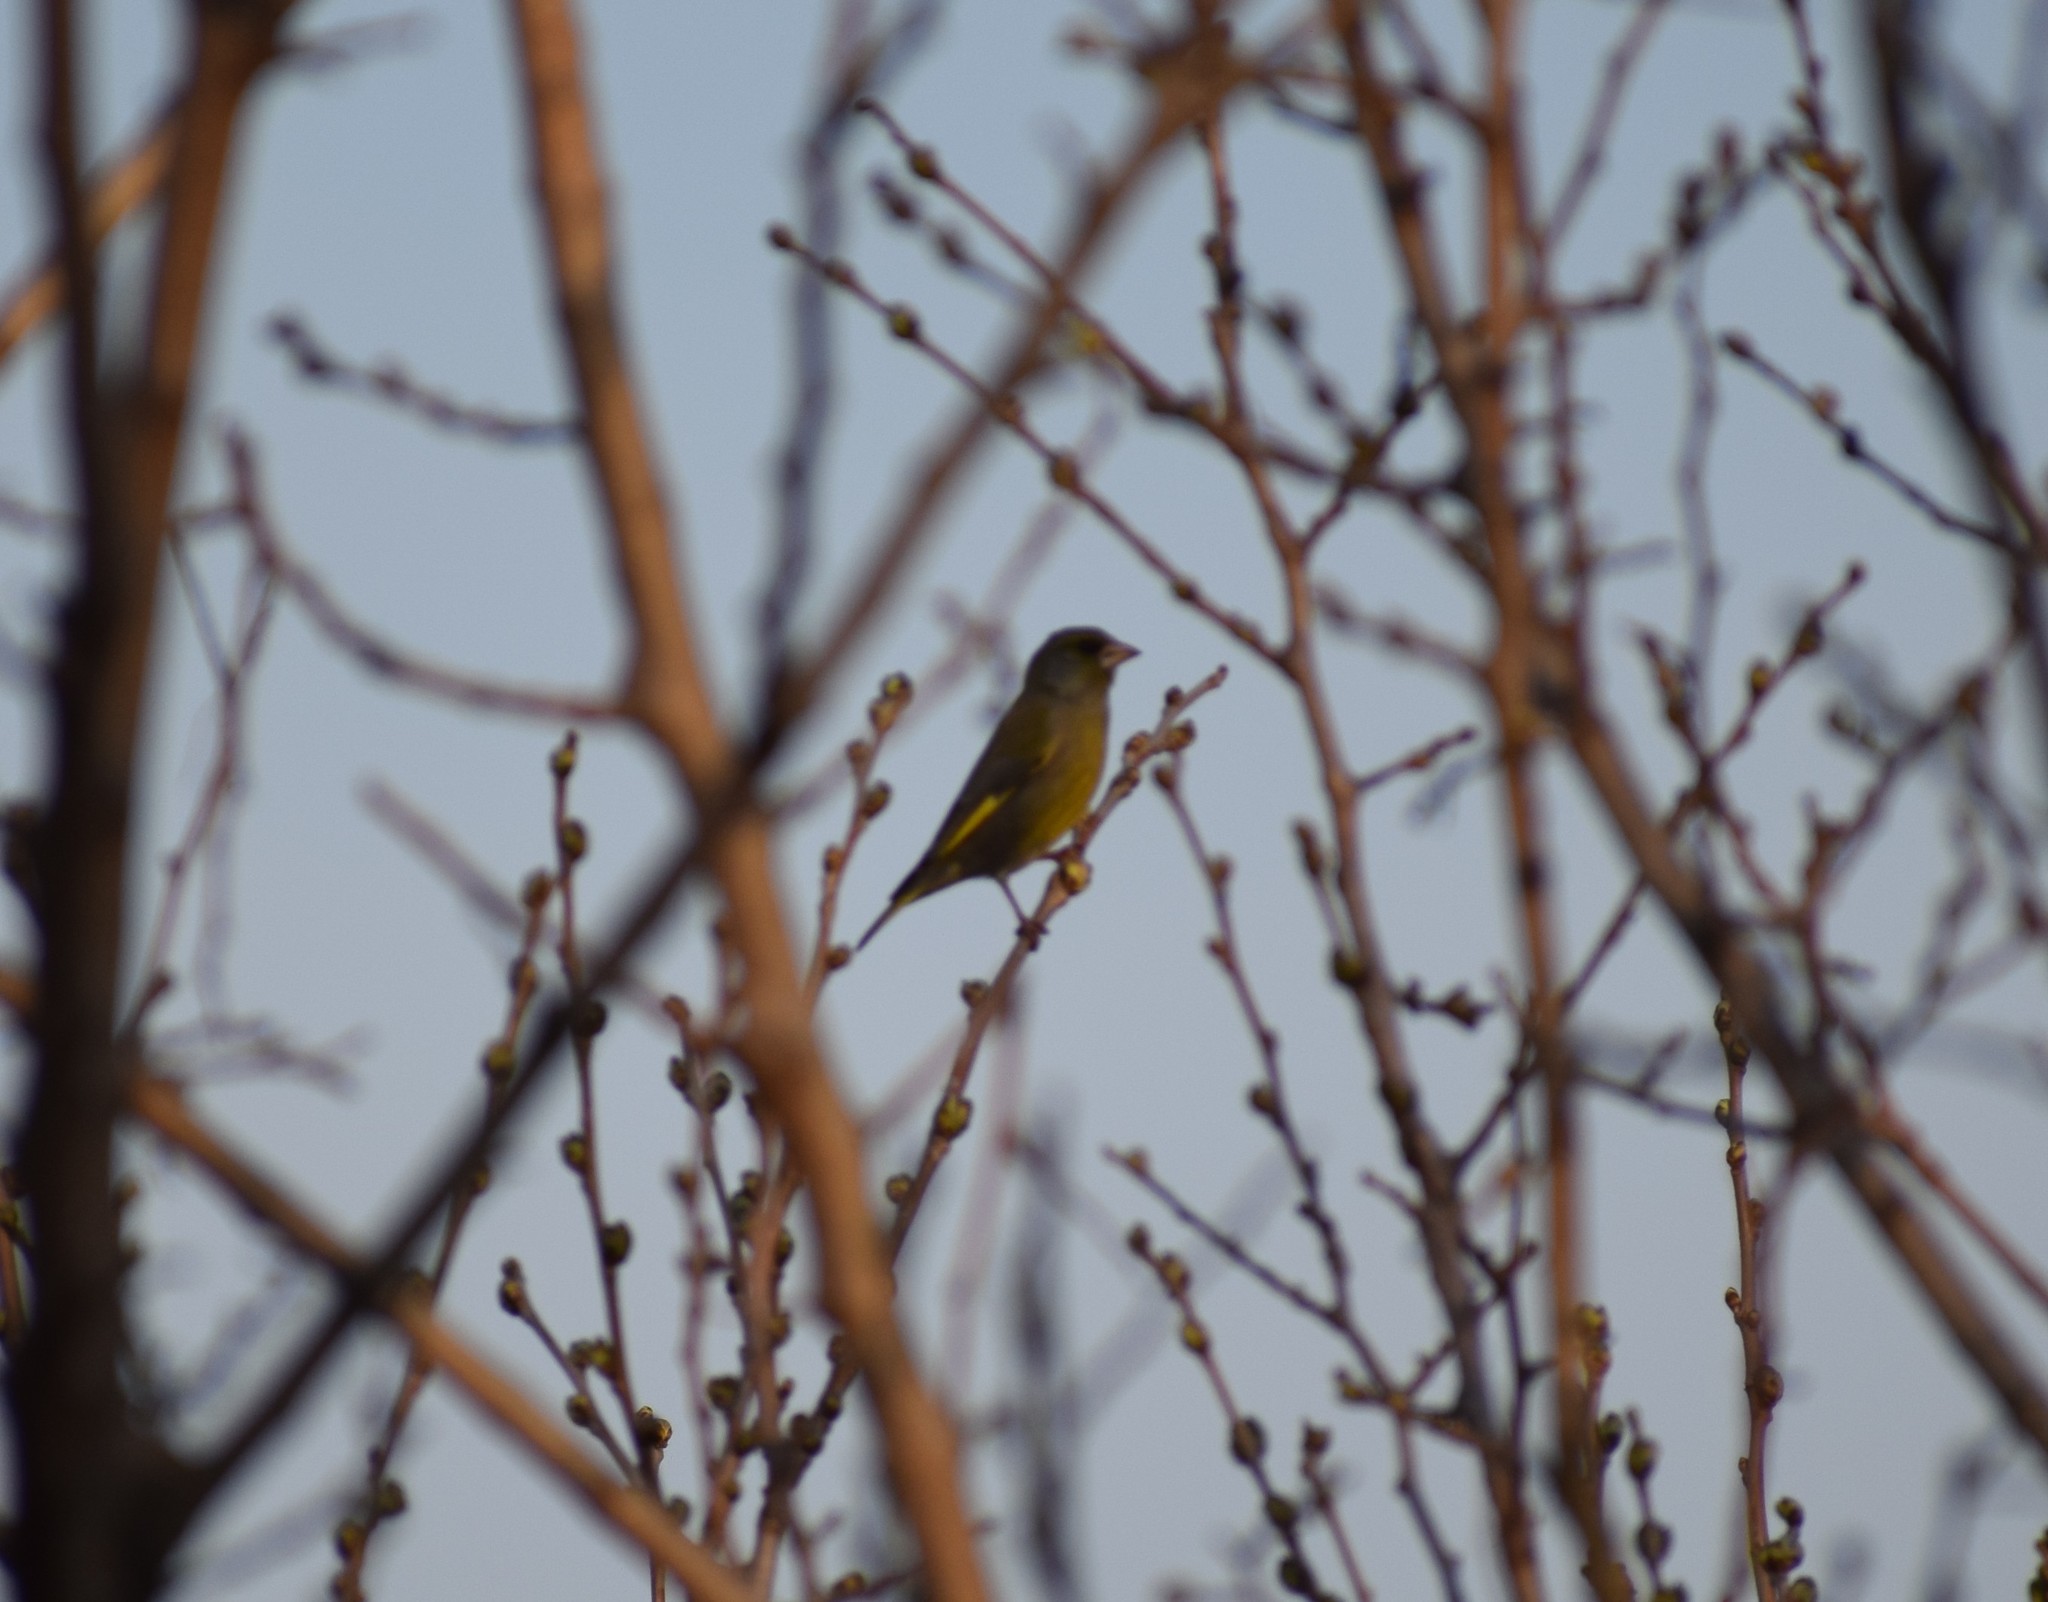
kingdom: Plantae
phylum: Tracheophyta
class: Liliopsida
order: Poales
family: Poaceae
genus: Chloris
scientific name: Chloris chloris
